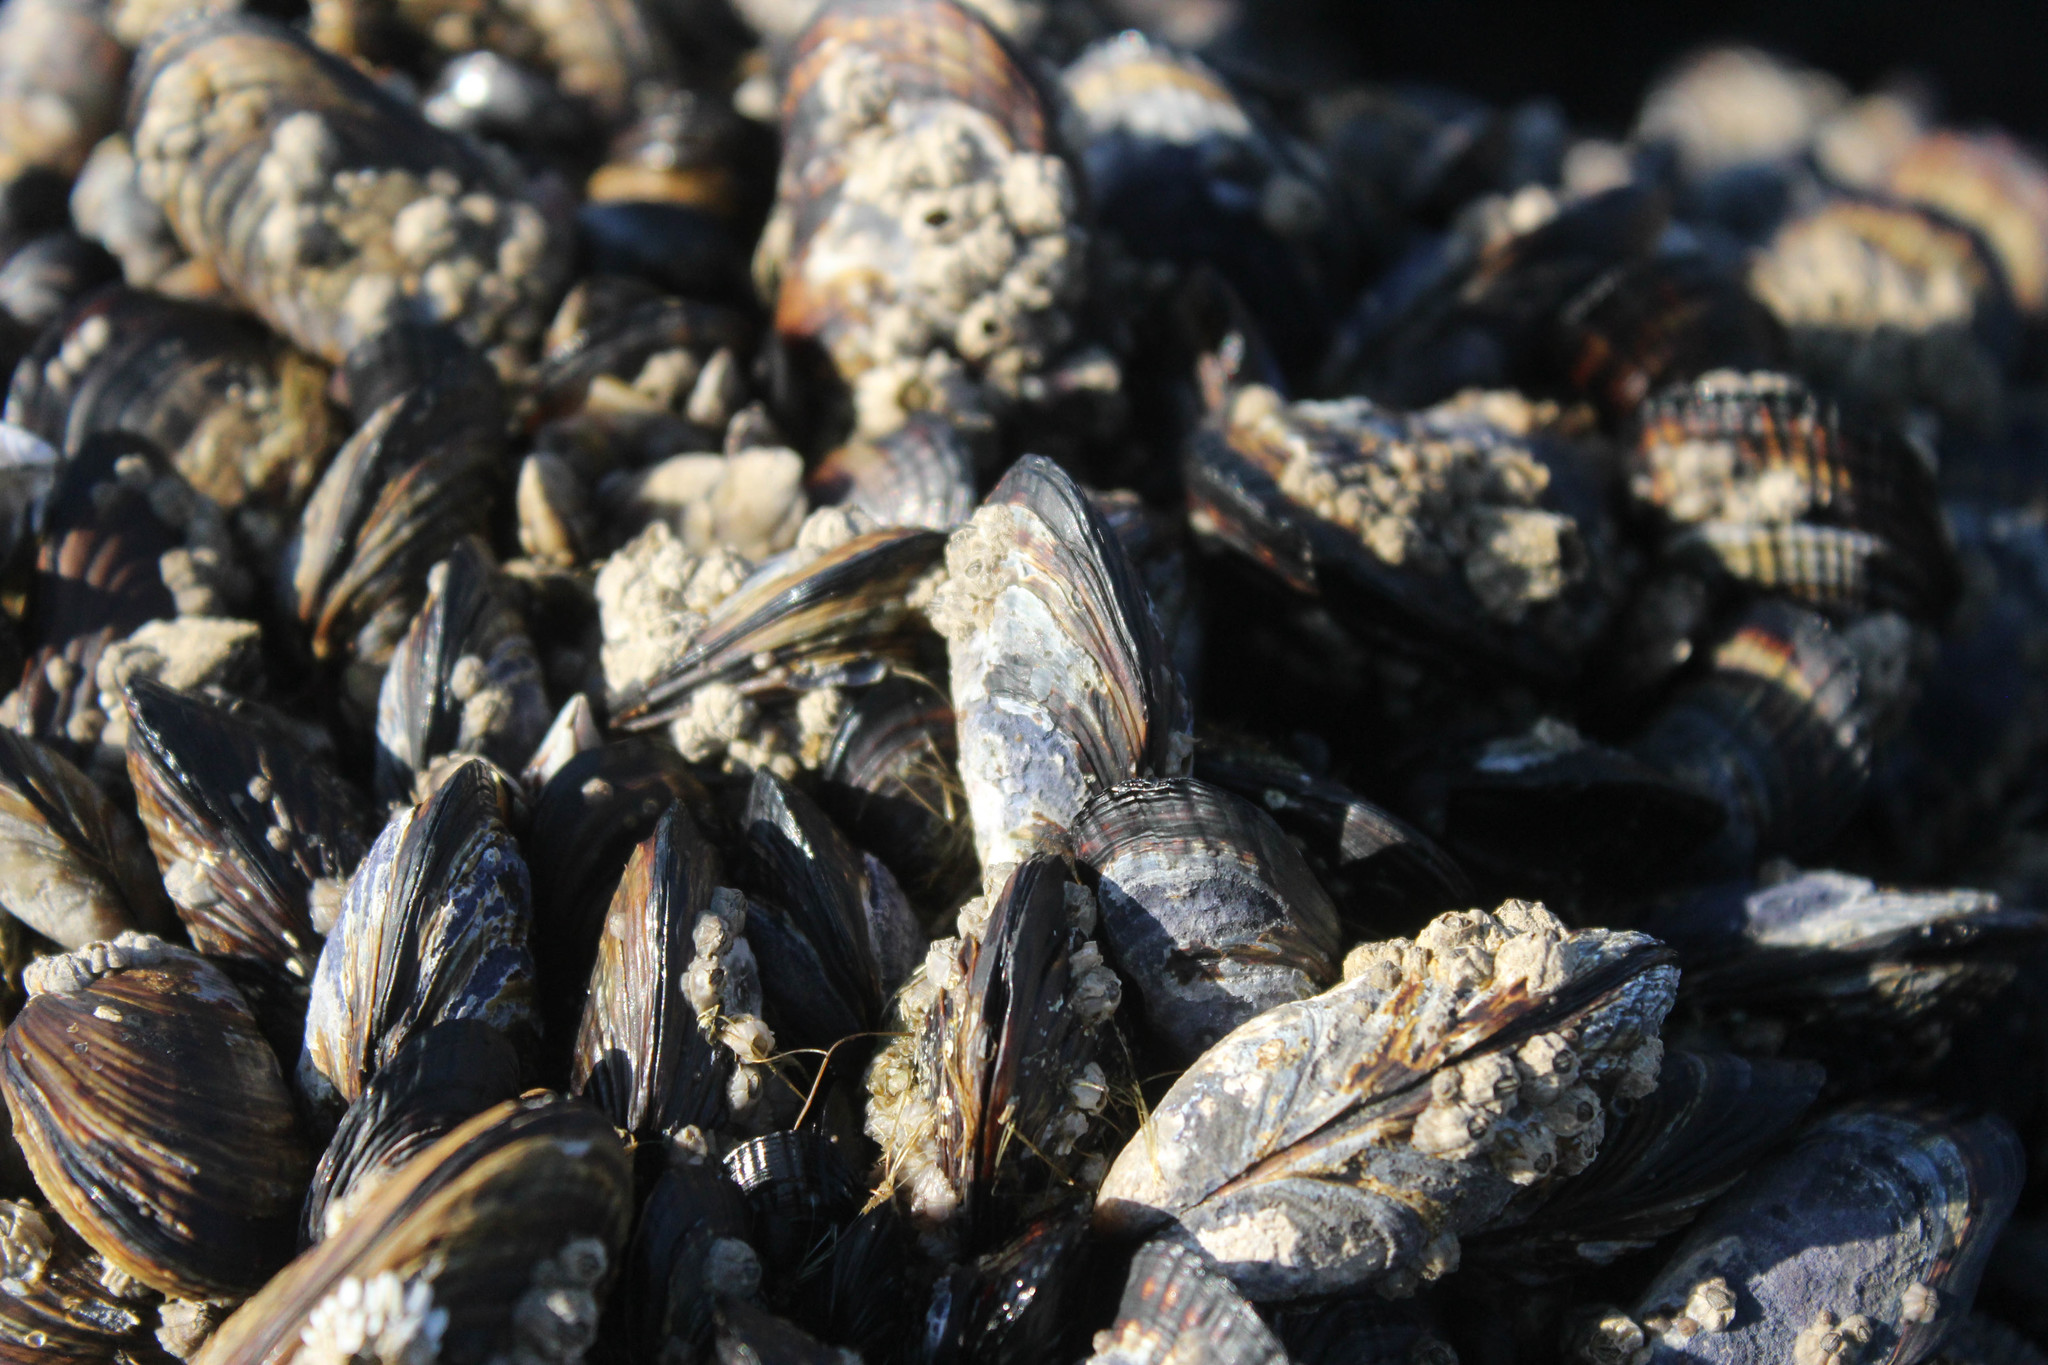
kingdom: Animalia
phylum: Mollusca
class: Bivalvia
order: Mytilida
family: Mytilidae
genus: Mytilus
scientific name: Mytilus californianus
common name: California mussel
